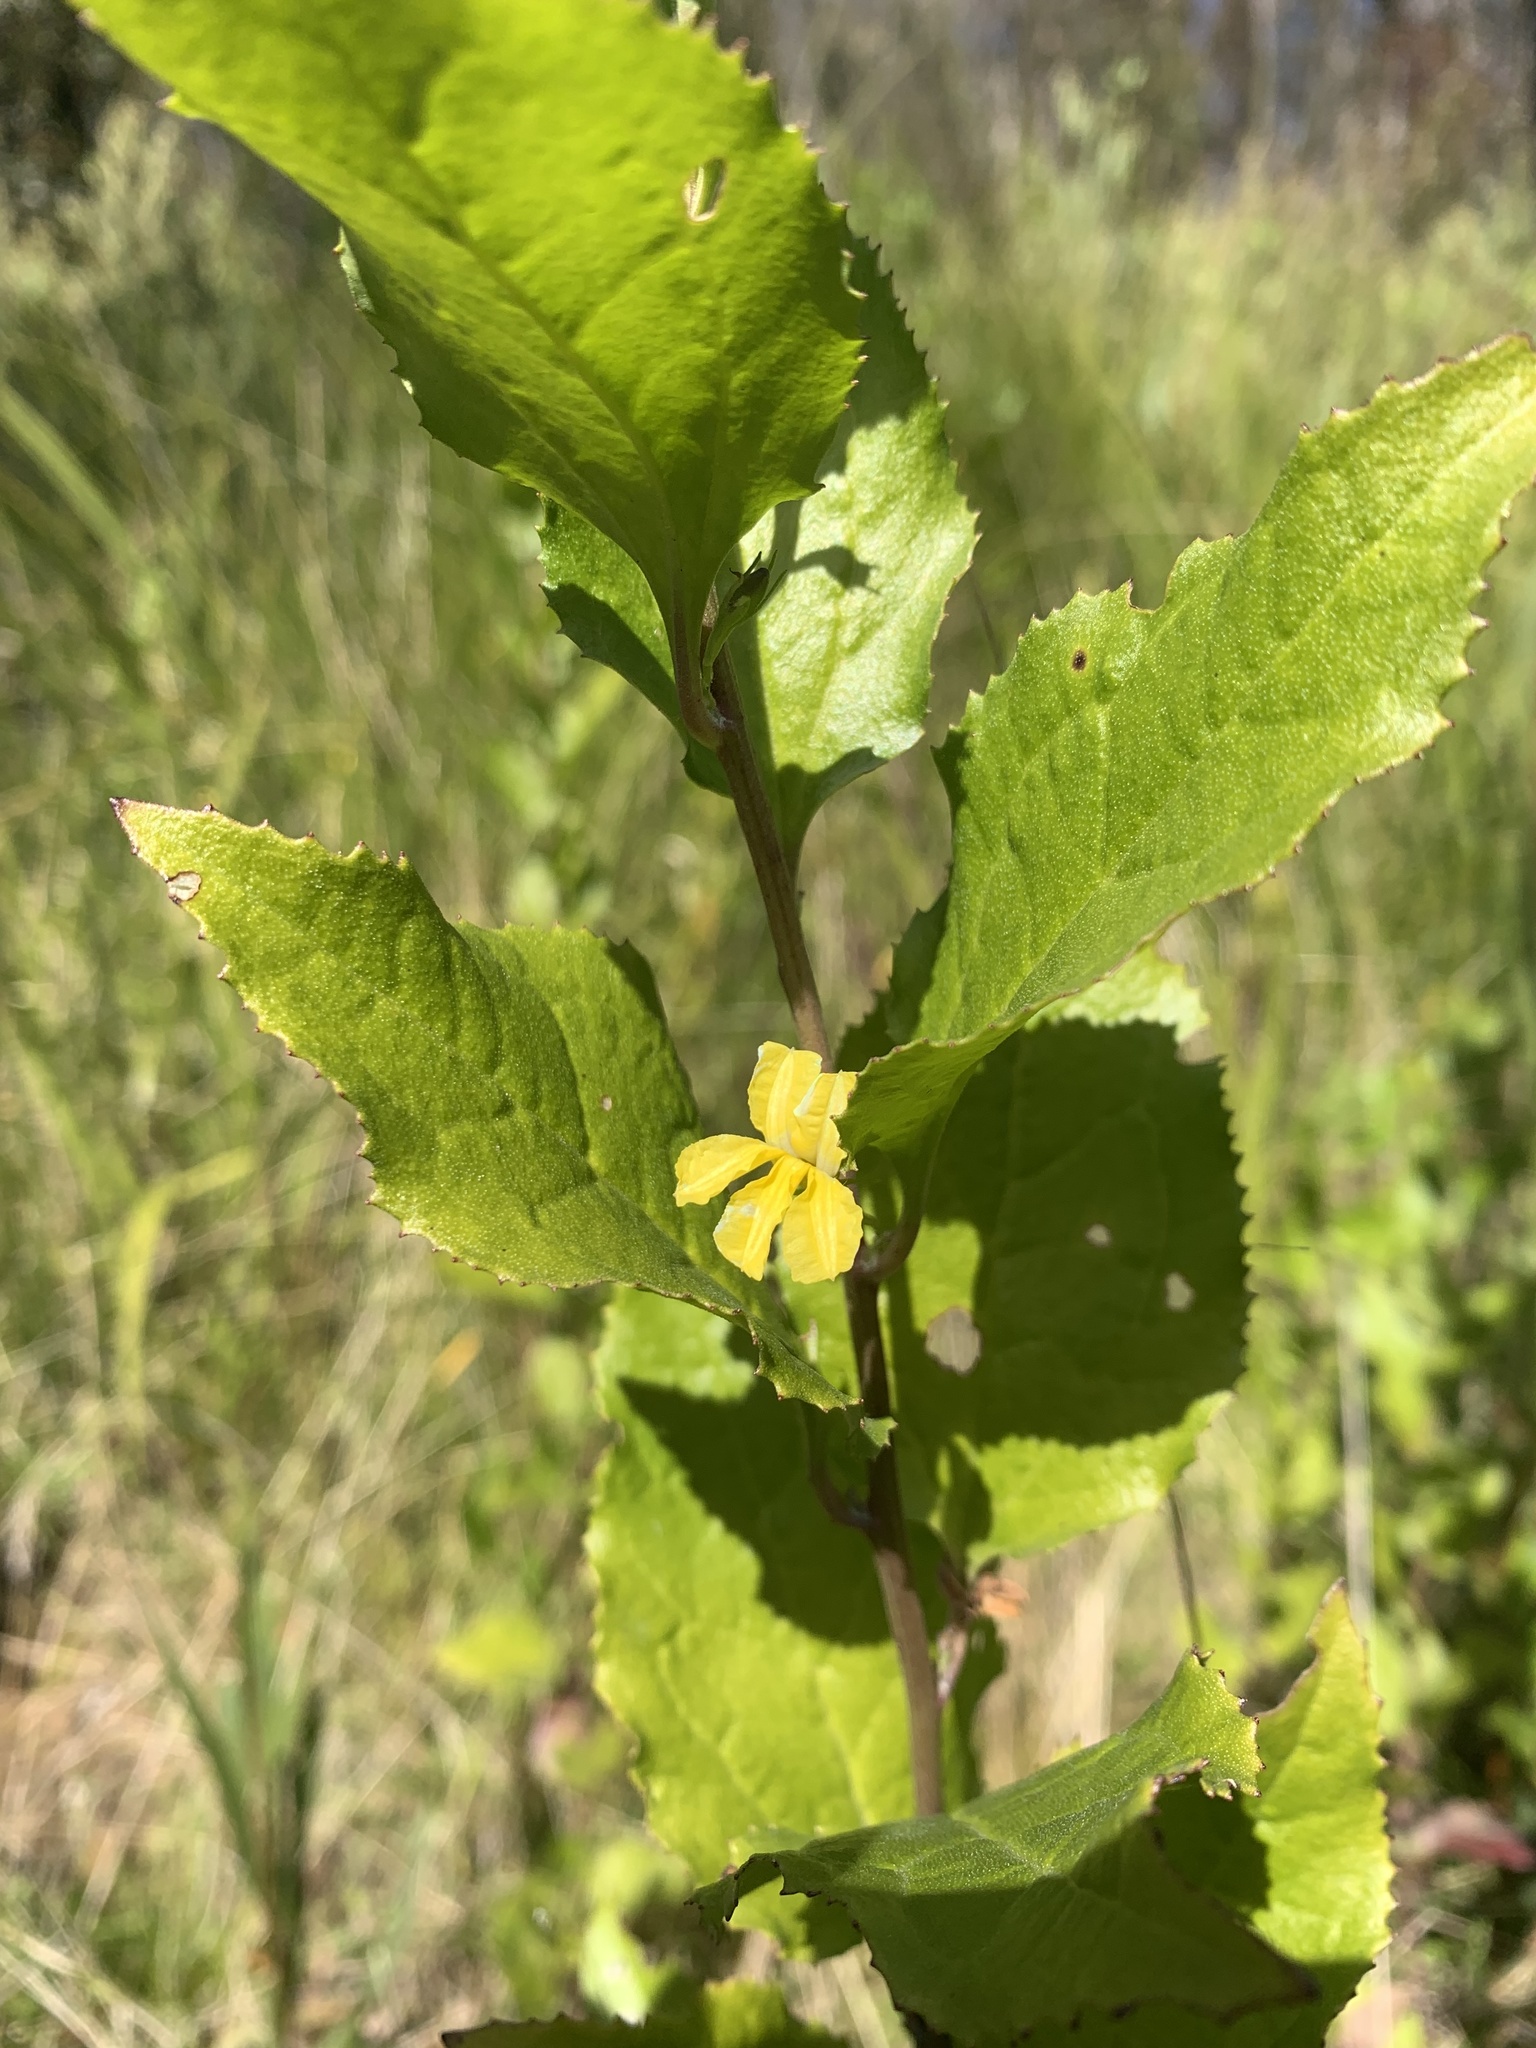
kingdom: Plantae
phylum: Tracheophyta
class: Magnoliopsida
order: Asterales
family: Goodeniaceae
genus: Goodenia
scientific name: Goodenia ovata
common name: Hop goodenia
